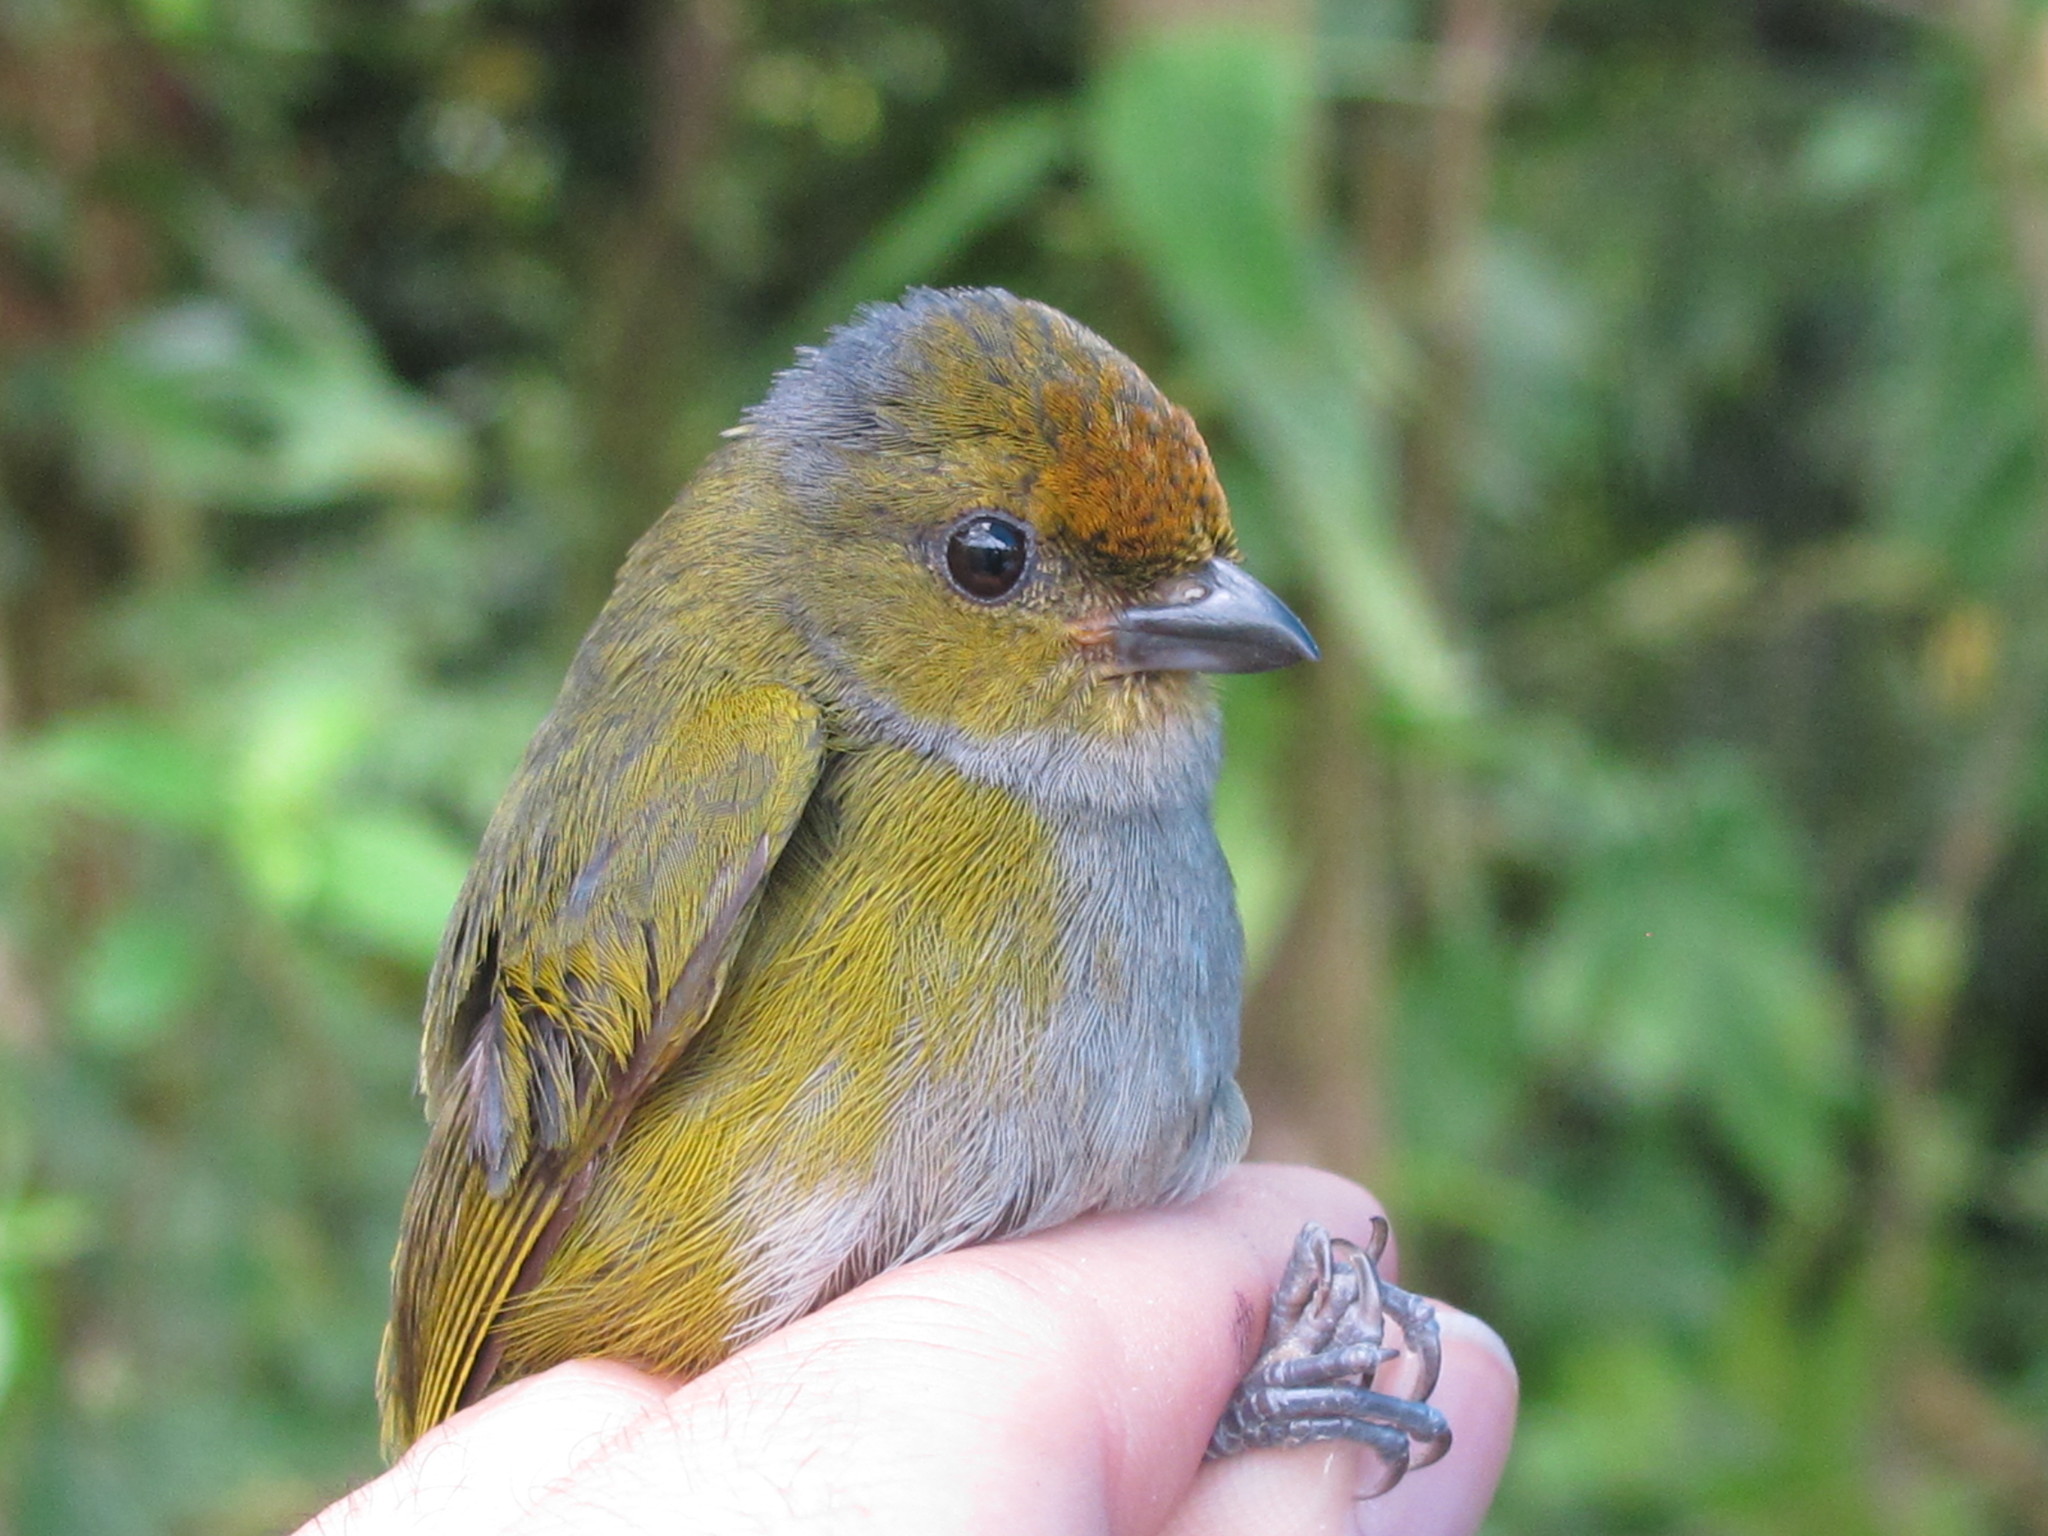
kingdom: Animalia
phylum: Chordata
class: Aves
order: Passeriformes
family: Fringillidae
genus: Euphonia
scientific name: Euphonia anneae
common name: Tawny-capped euphonia
